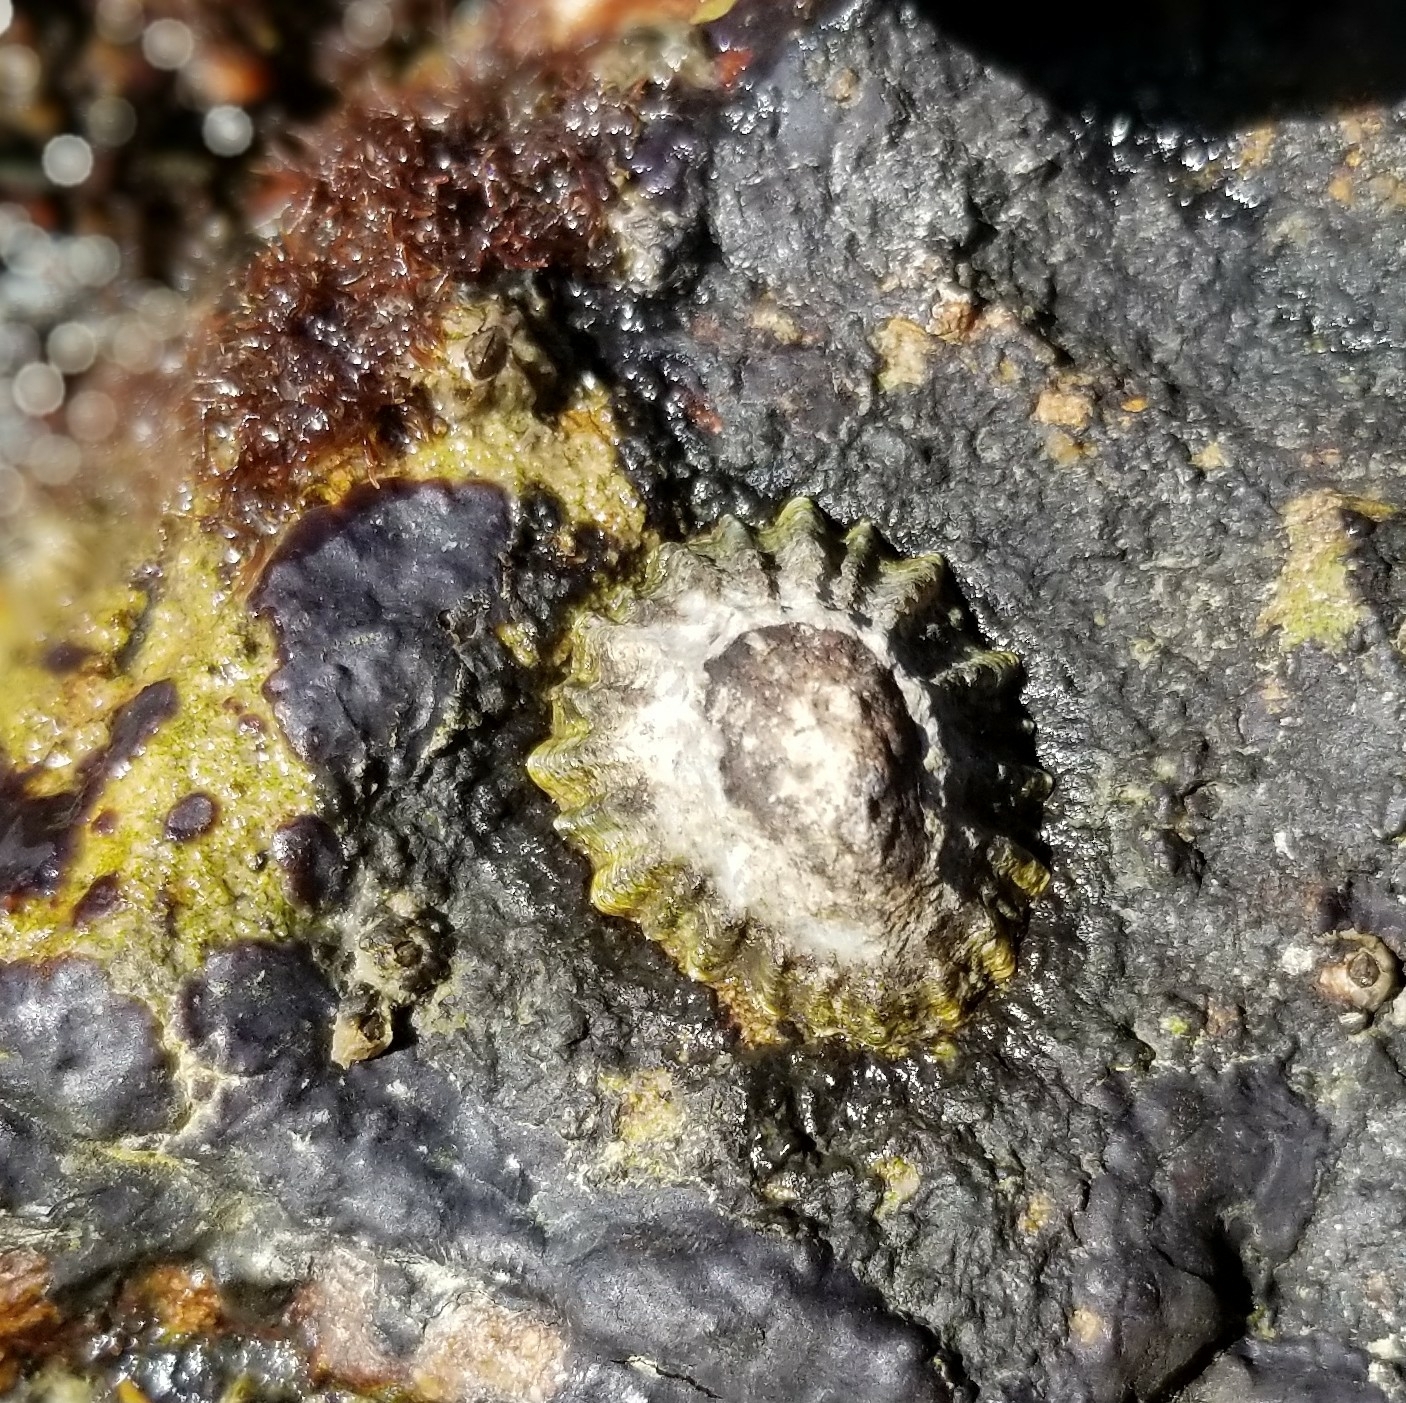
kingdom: Animalia
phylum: Mollusca
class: Gastropoda
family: Lottiidae
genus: Lottia
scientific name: Lottia scabra
